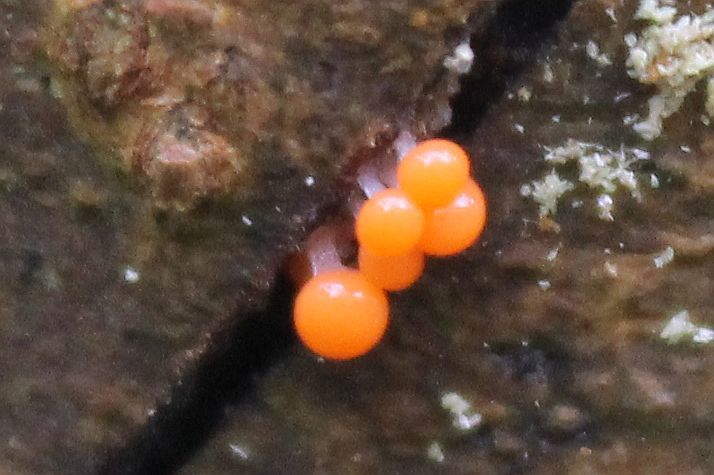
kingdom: Protozoa
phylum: Mycetozoa
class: Myxomycetes
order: Trichiales
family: Arcyriaceae
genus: Hemitrichia
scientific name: Hemitrichia decipiens
